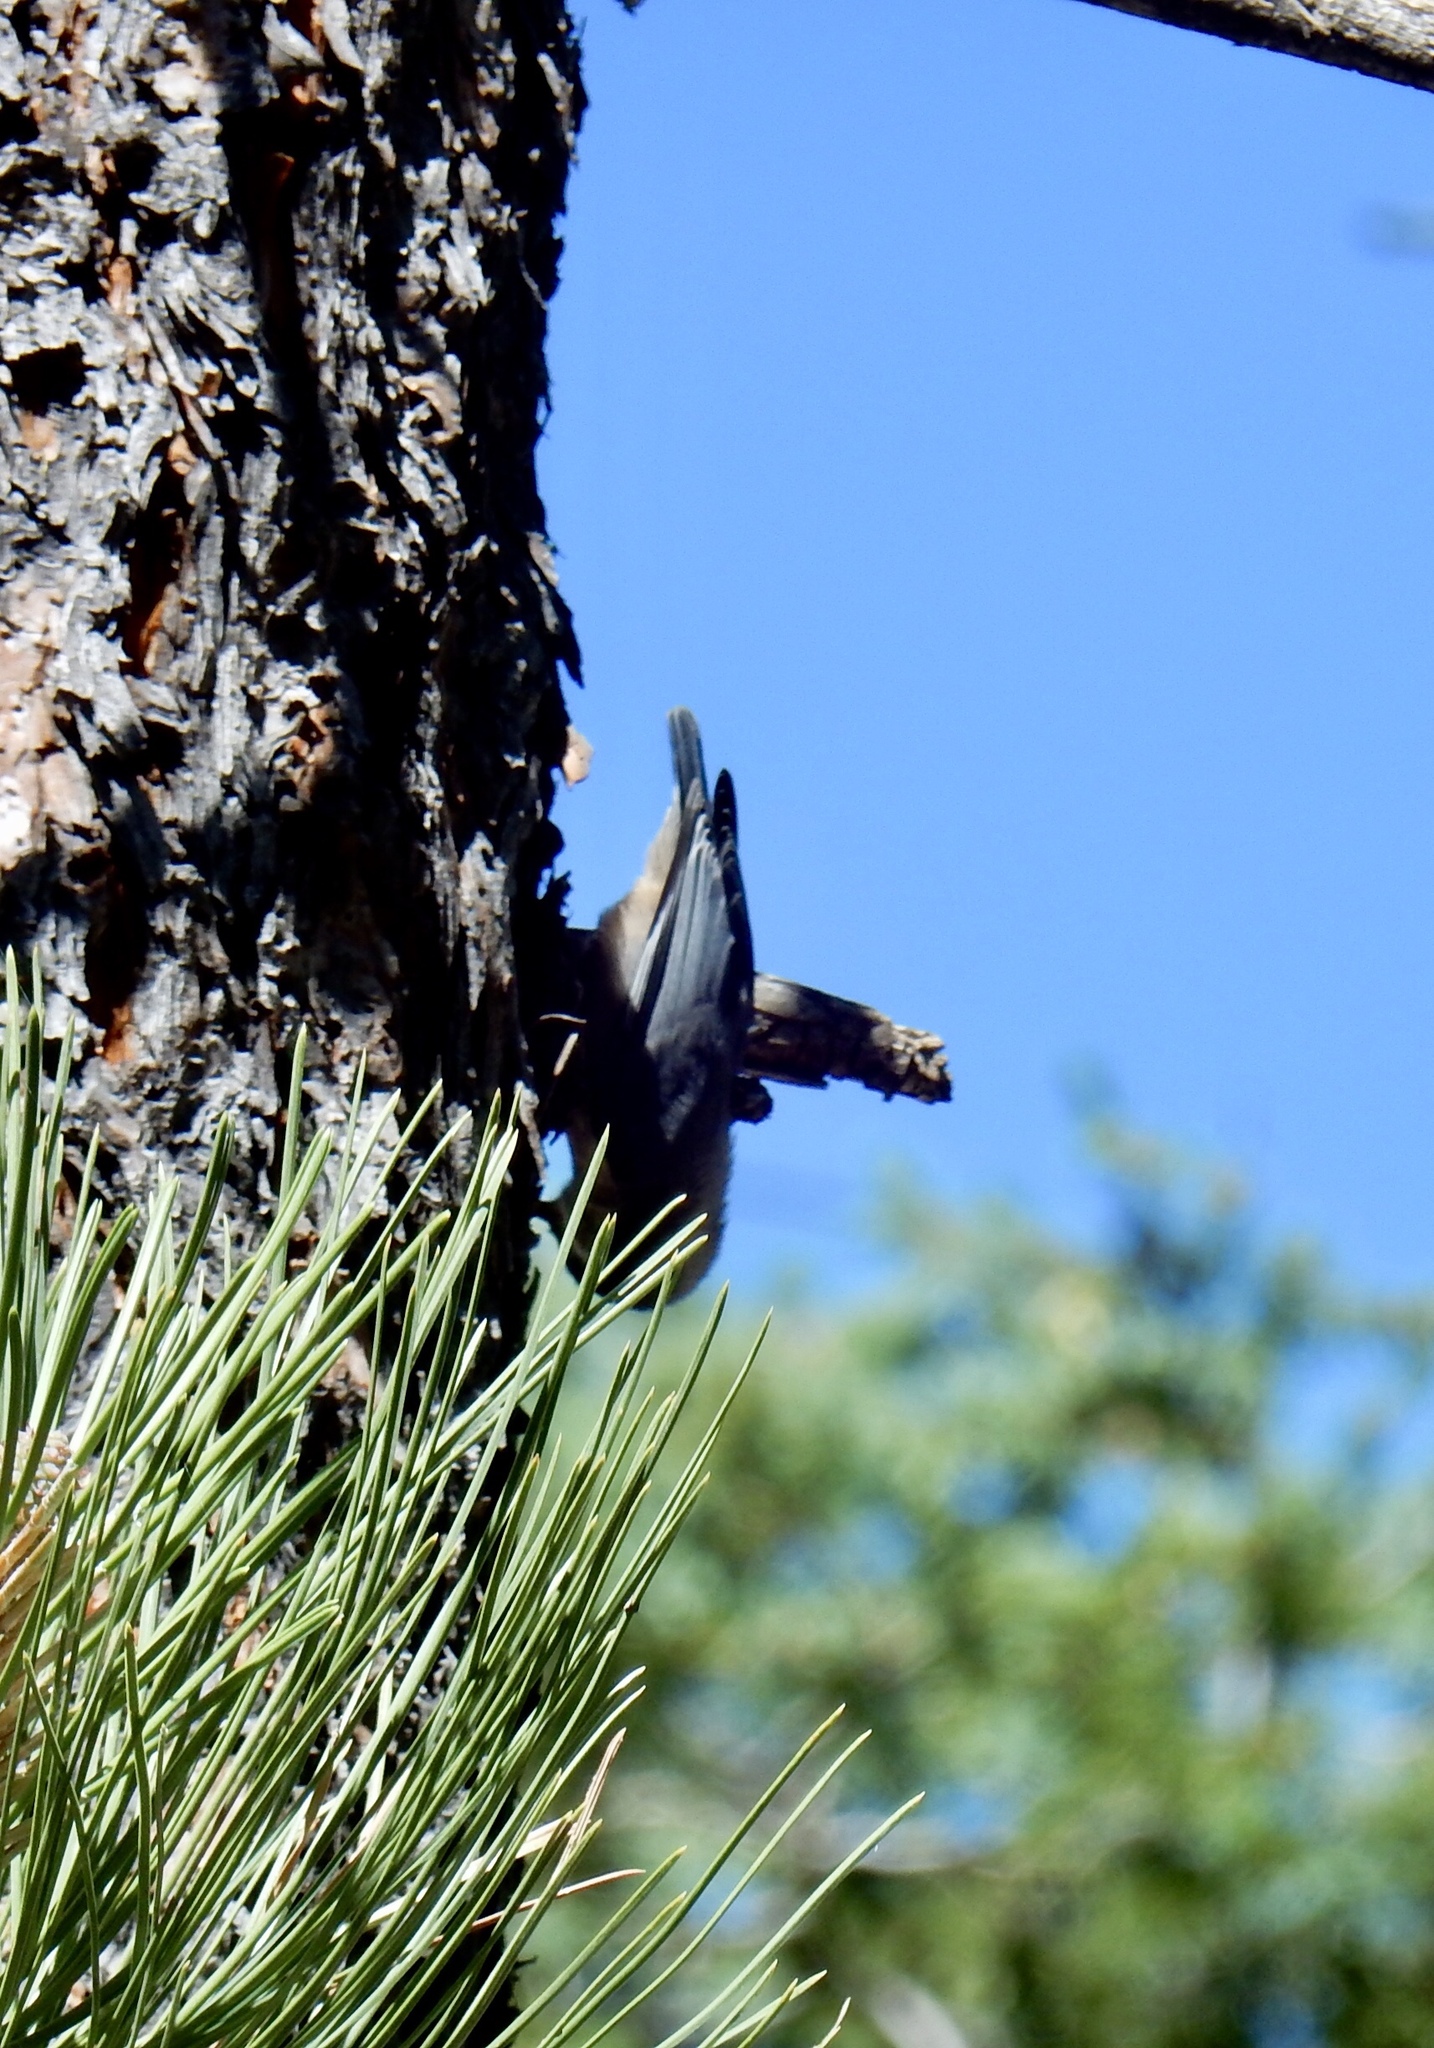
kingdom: Animalia
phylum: Chordata
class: Aves
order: Passeriformes
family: Sittidae
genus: Sitta
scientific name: Sitta pygmaea
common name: Pygmy nuthatch
